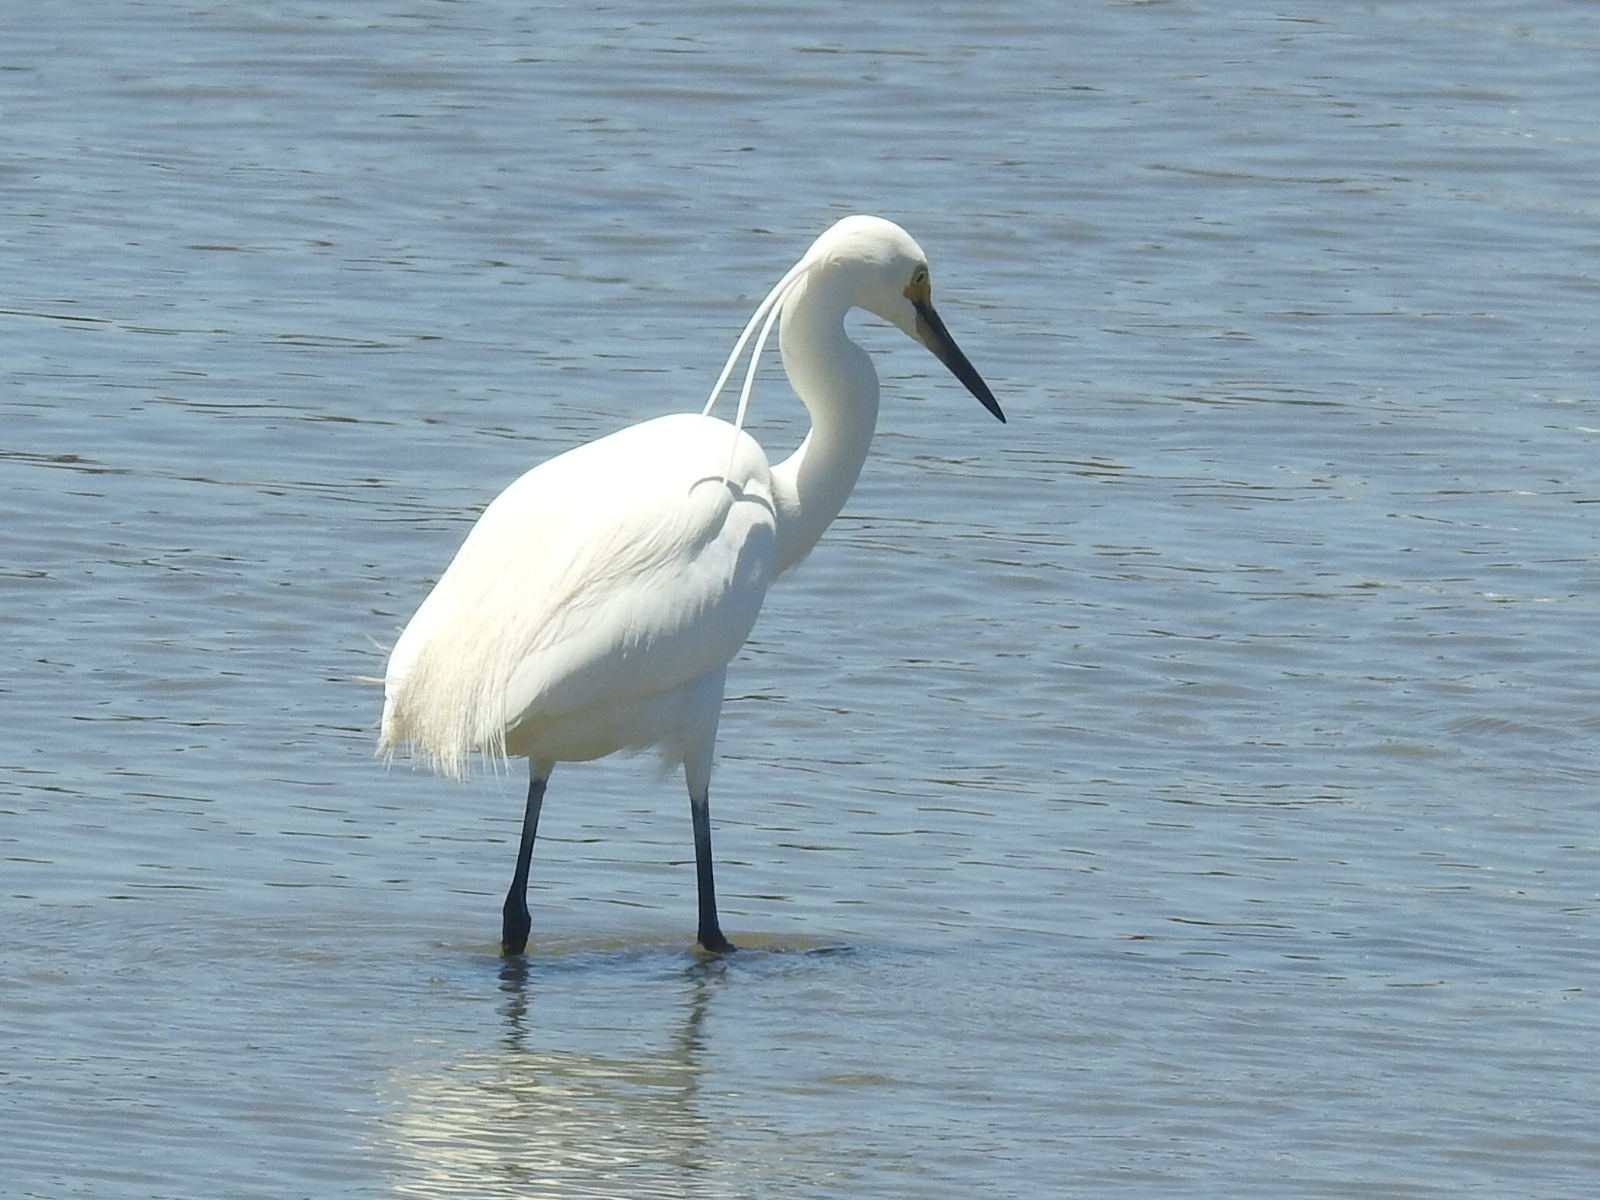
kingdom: Animalia
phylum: Chordata
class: Aves
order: Pelecaniformes
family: Ardeidae
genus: Egretta
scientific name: Egretta garzetta
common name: Little egret
